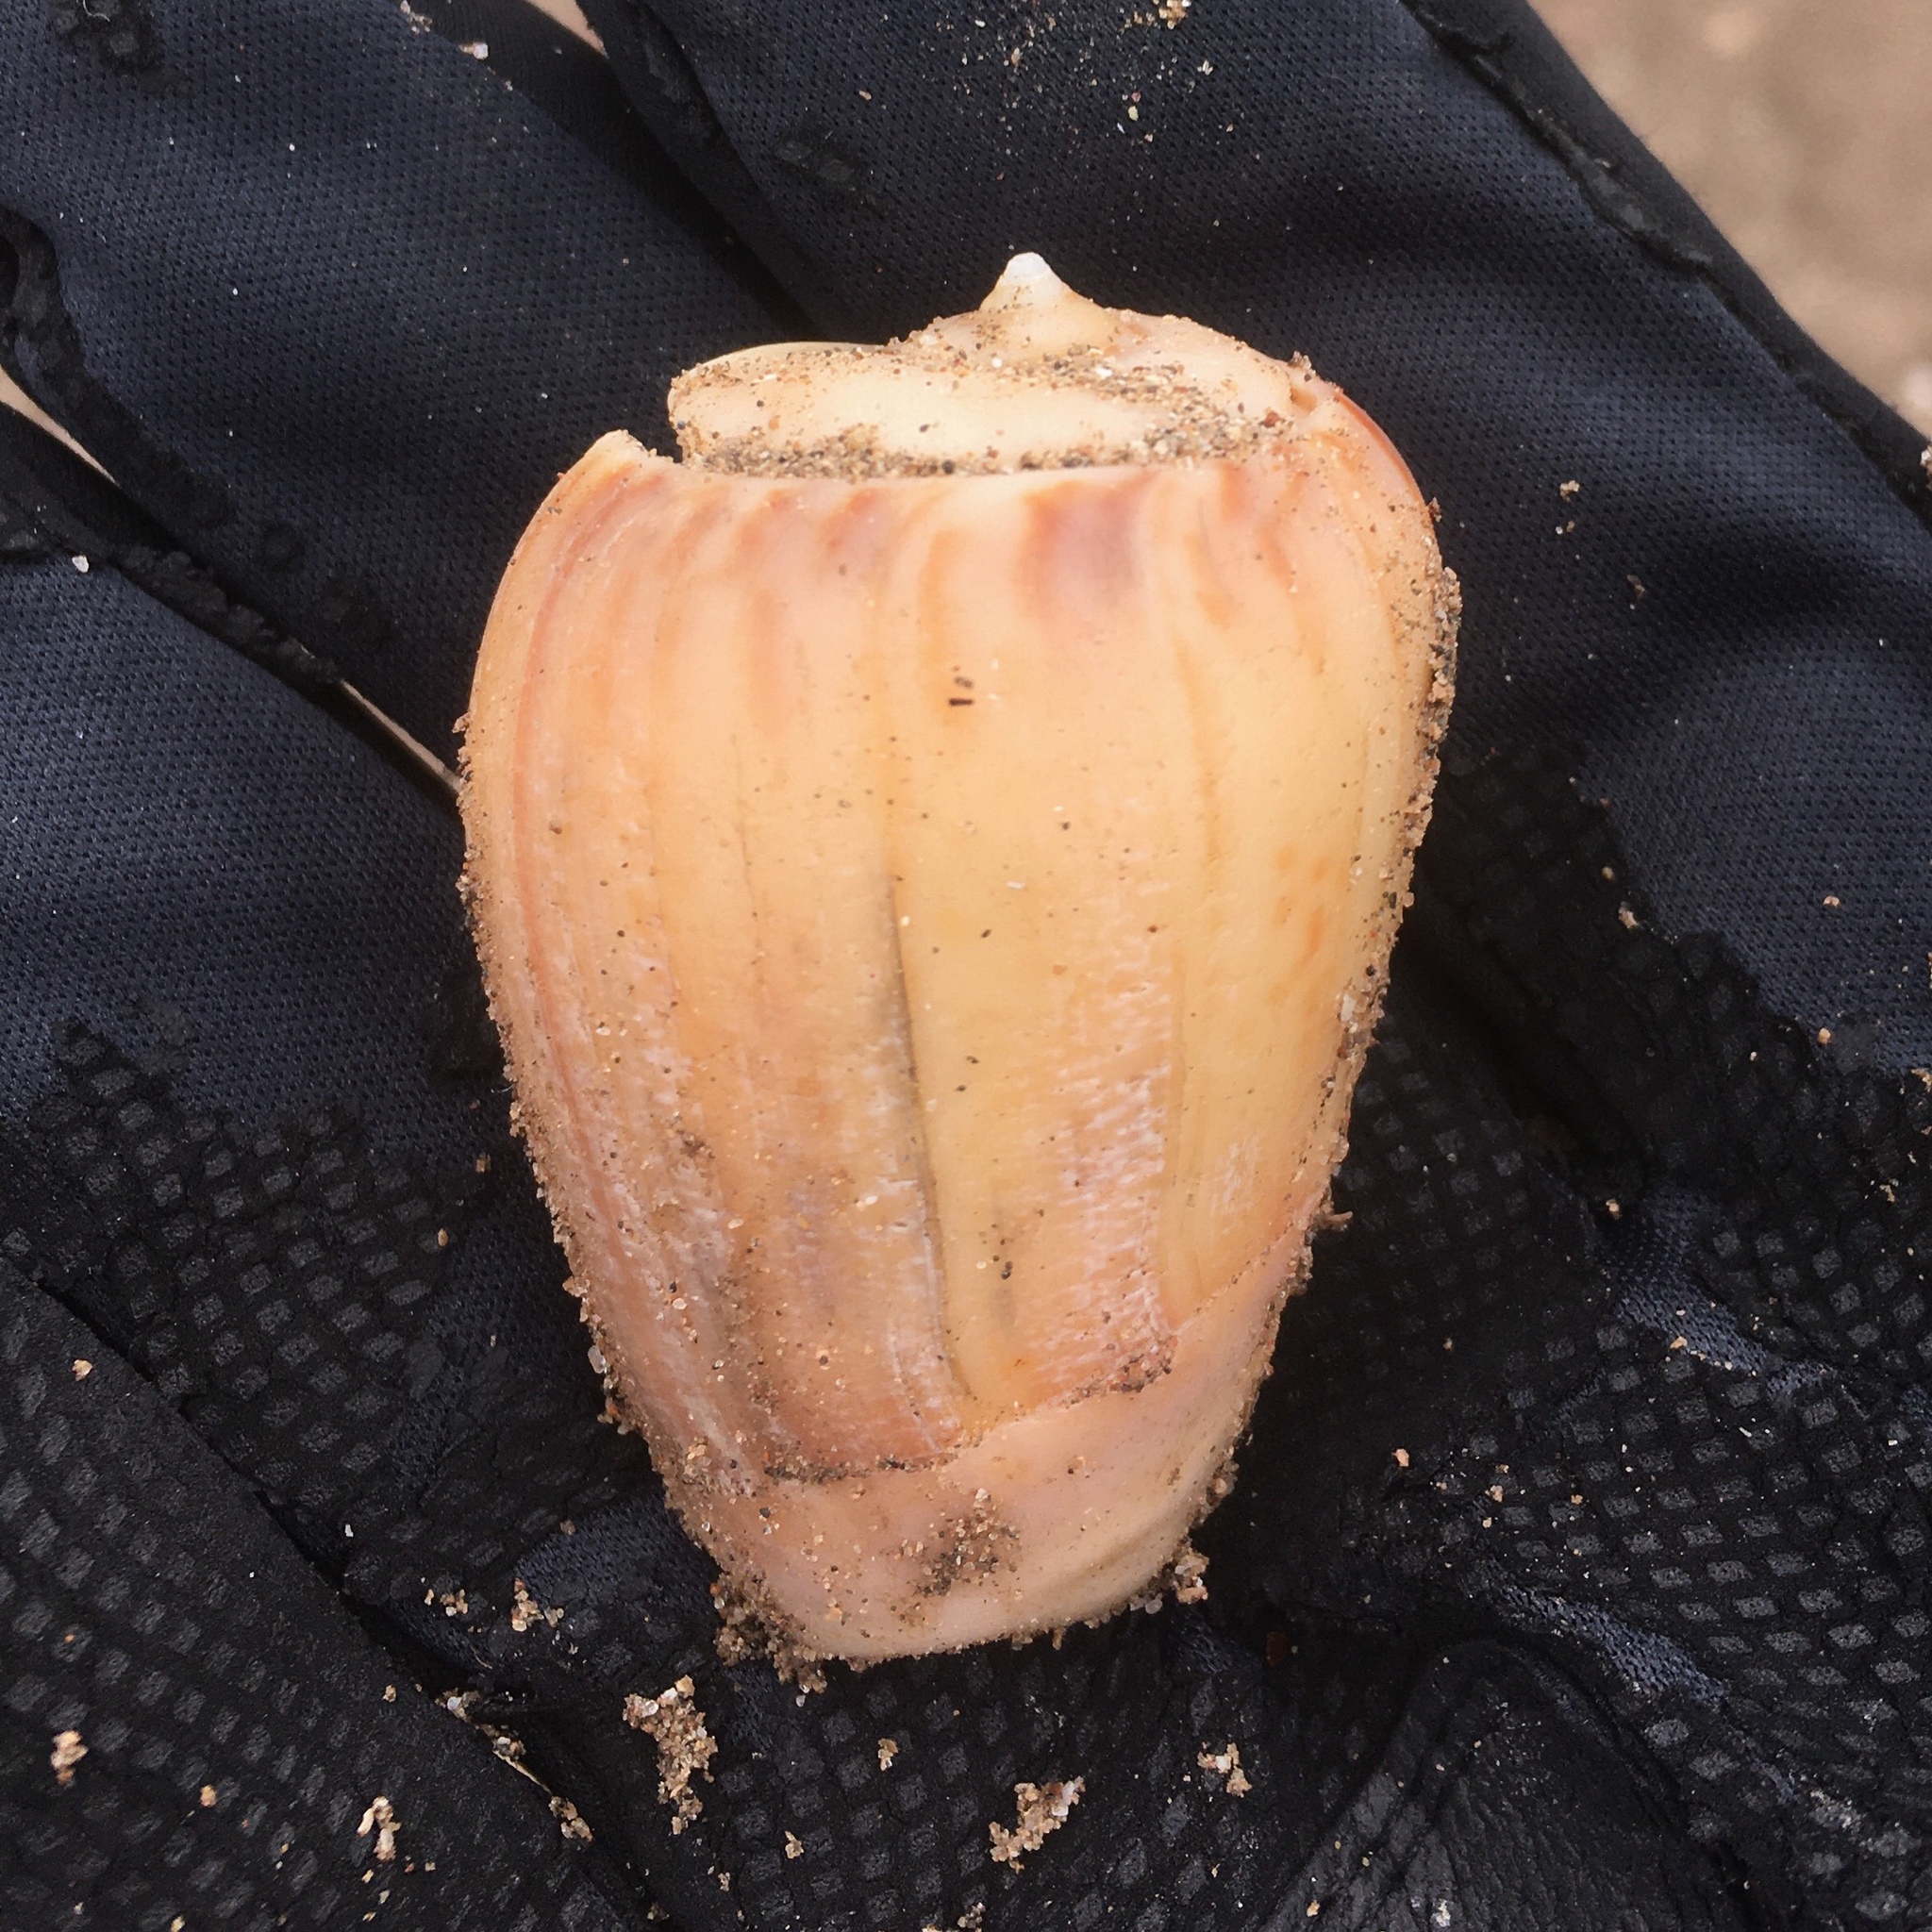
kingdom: Animalia
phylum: Mollusca
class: Gastropoda
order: Neogastropoda
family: Olividae
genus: Olivancillaria
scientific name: Olivancillaria urceus
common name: Bear ancilla
